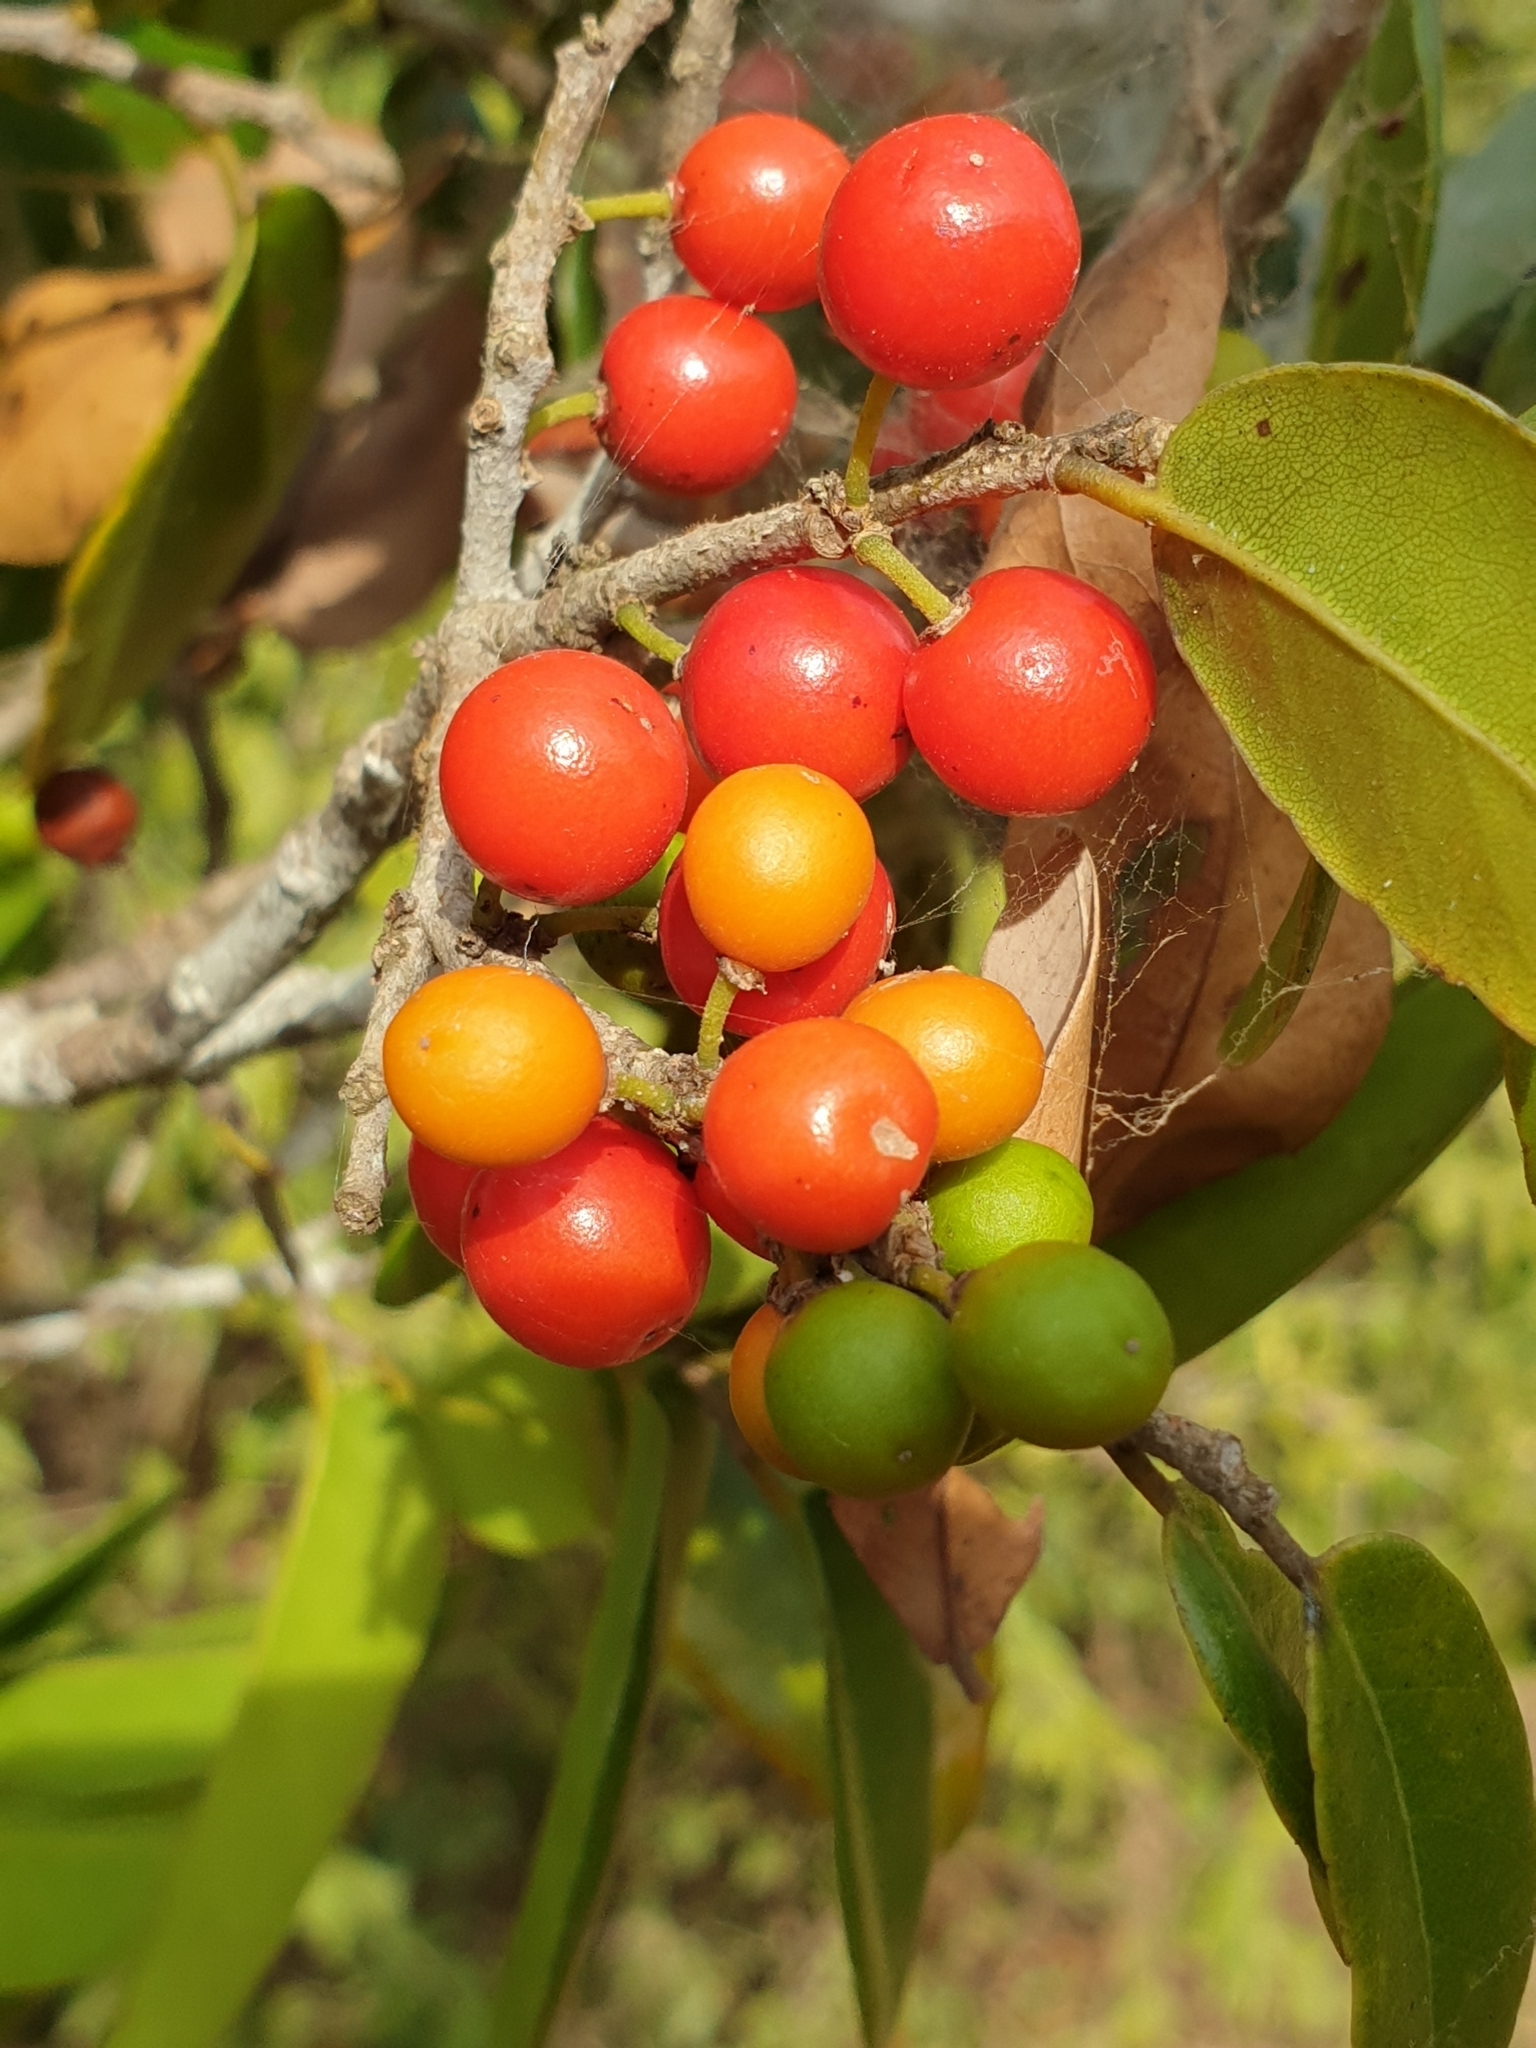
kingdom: Plantae
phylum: Tracheophyta
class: Magnoliopsida
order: Malpighiales
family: Putranjivaceae
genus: Drypetes
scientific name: Drypetes sepiaria
